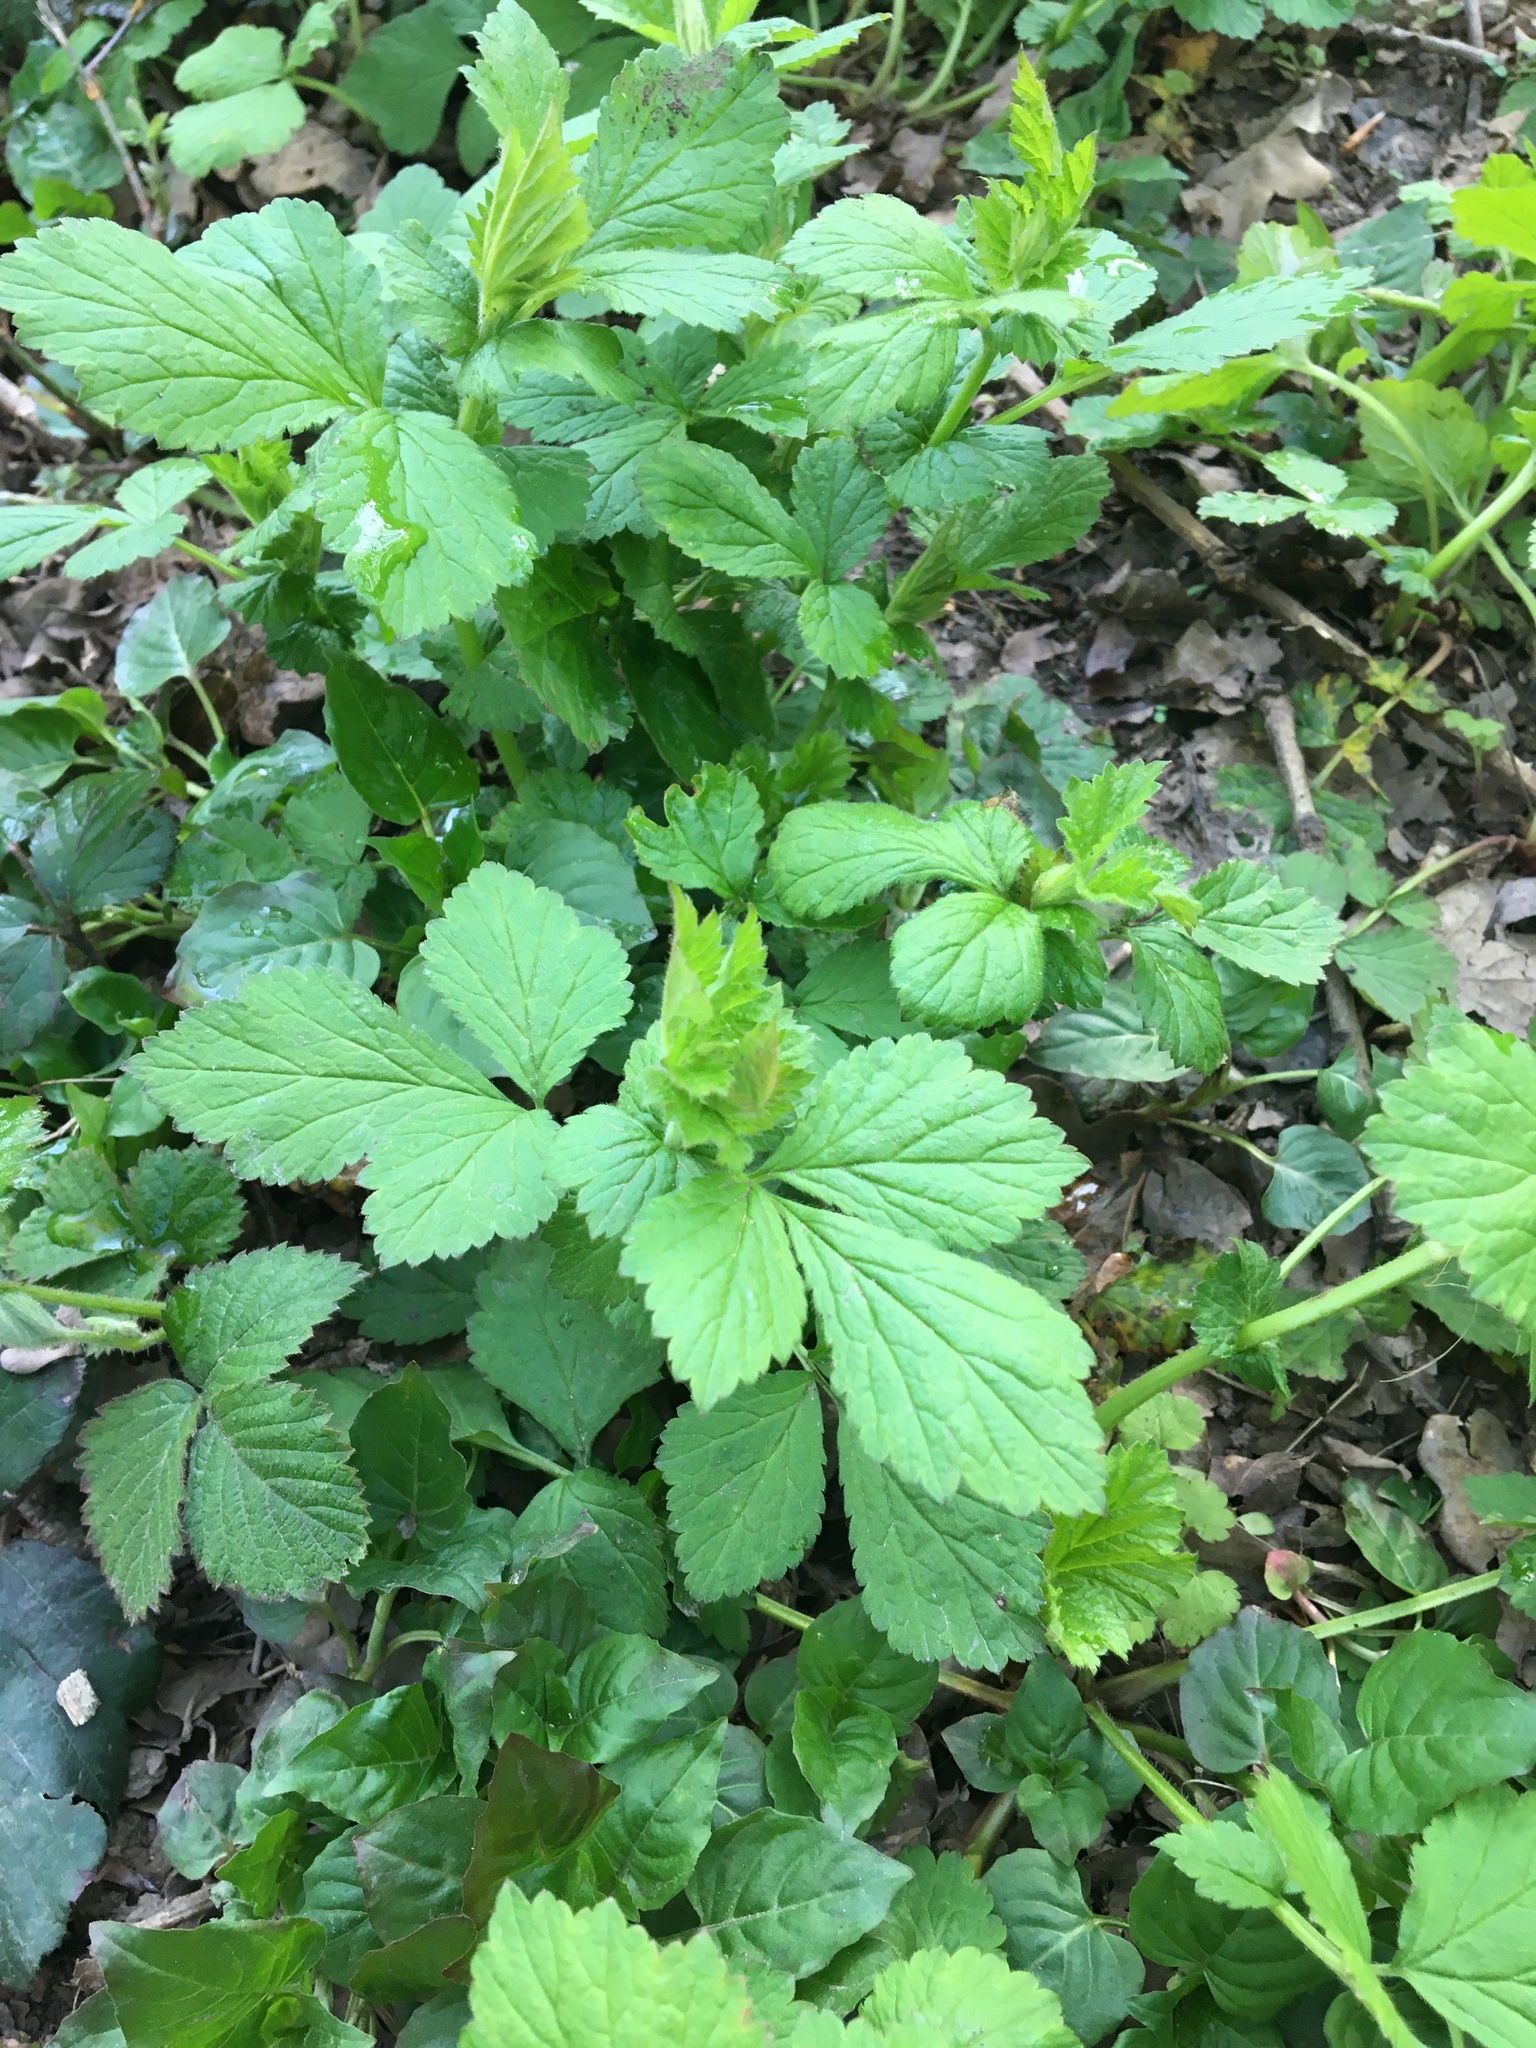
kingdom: Plantae
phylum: Tracheophyta
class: Magnoliopsida
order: Rosales
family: Rosaceae
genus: Geum
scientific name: Geum urbanum
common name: Wood avens
